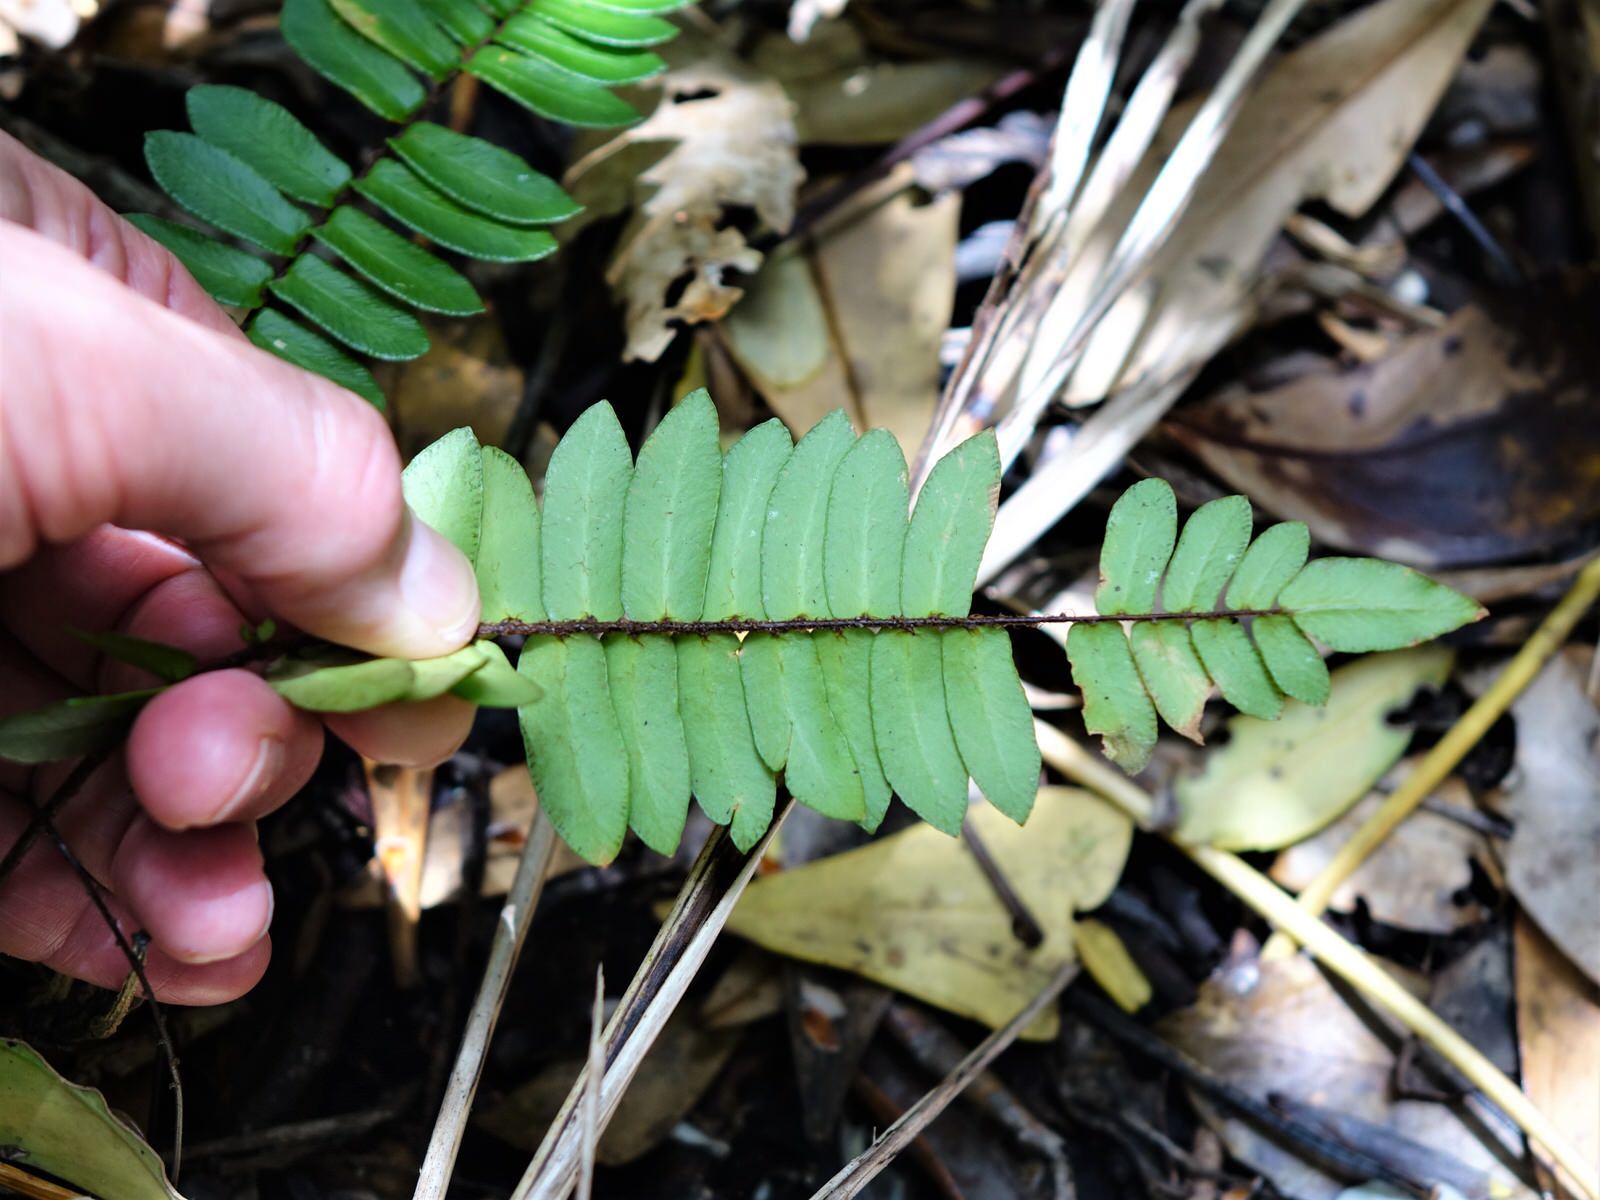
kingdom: Plantae
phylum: Tracheophyta
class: Polypodiopsida
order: Polypodiales
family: Pteridaceae
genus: Pellaea
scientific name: Pellaea falcata
